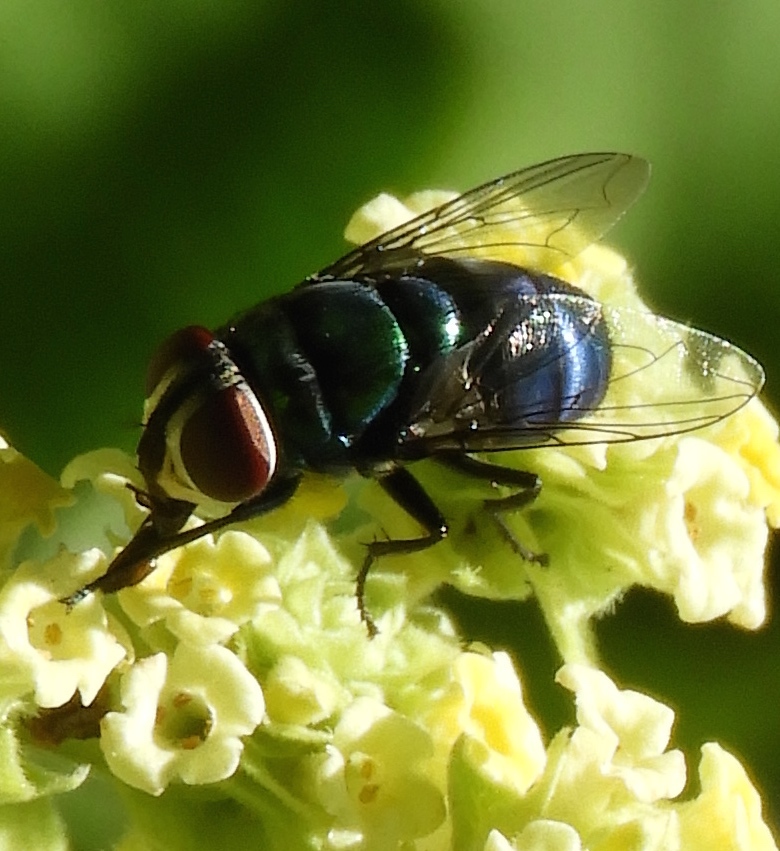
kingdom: Animalia
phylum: Arthropoda
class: Insecta
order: Diptera
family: Calliphoridae
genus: Chrysomya
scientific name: Chrysomya
